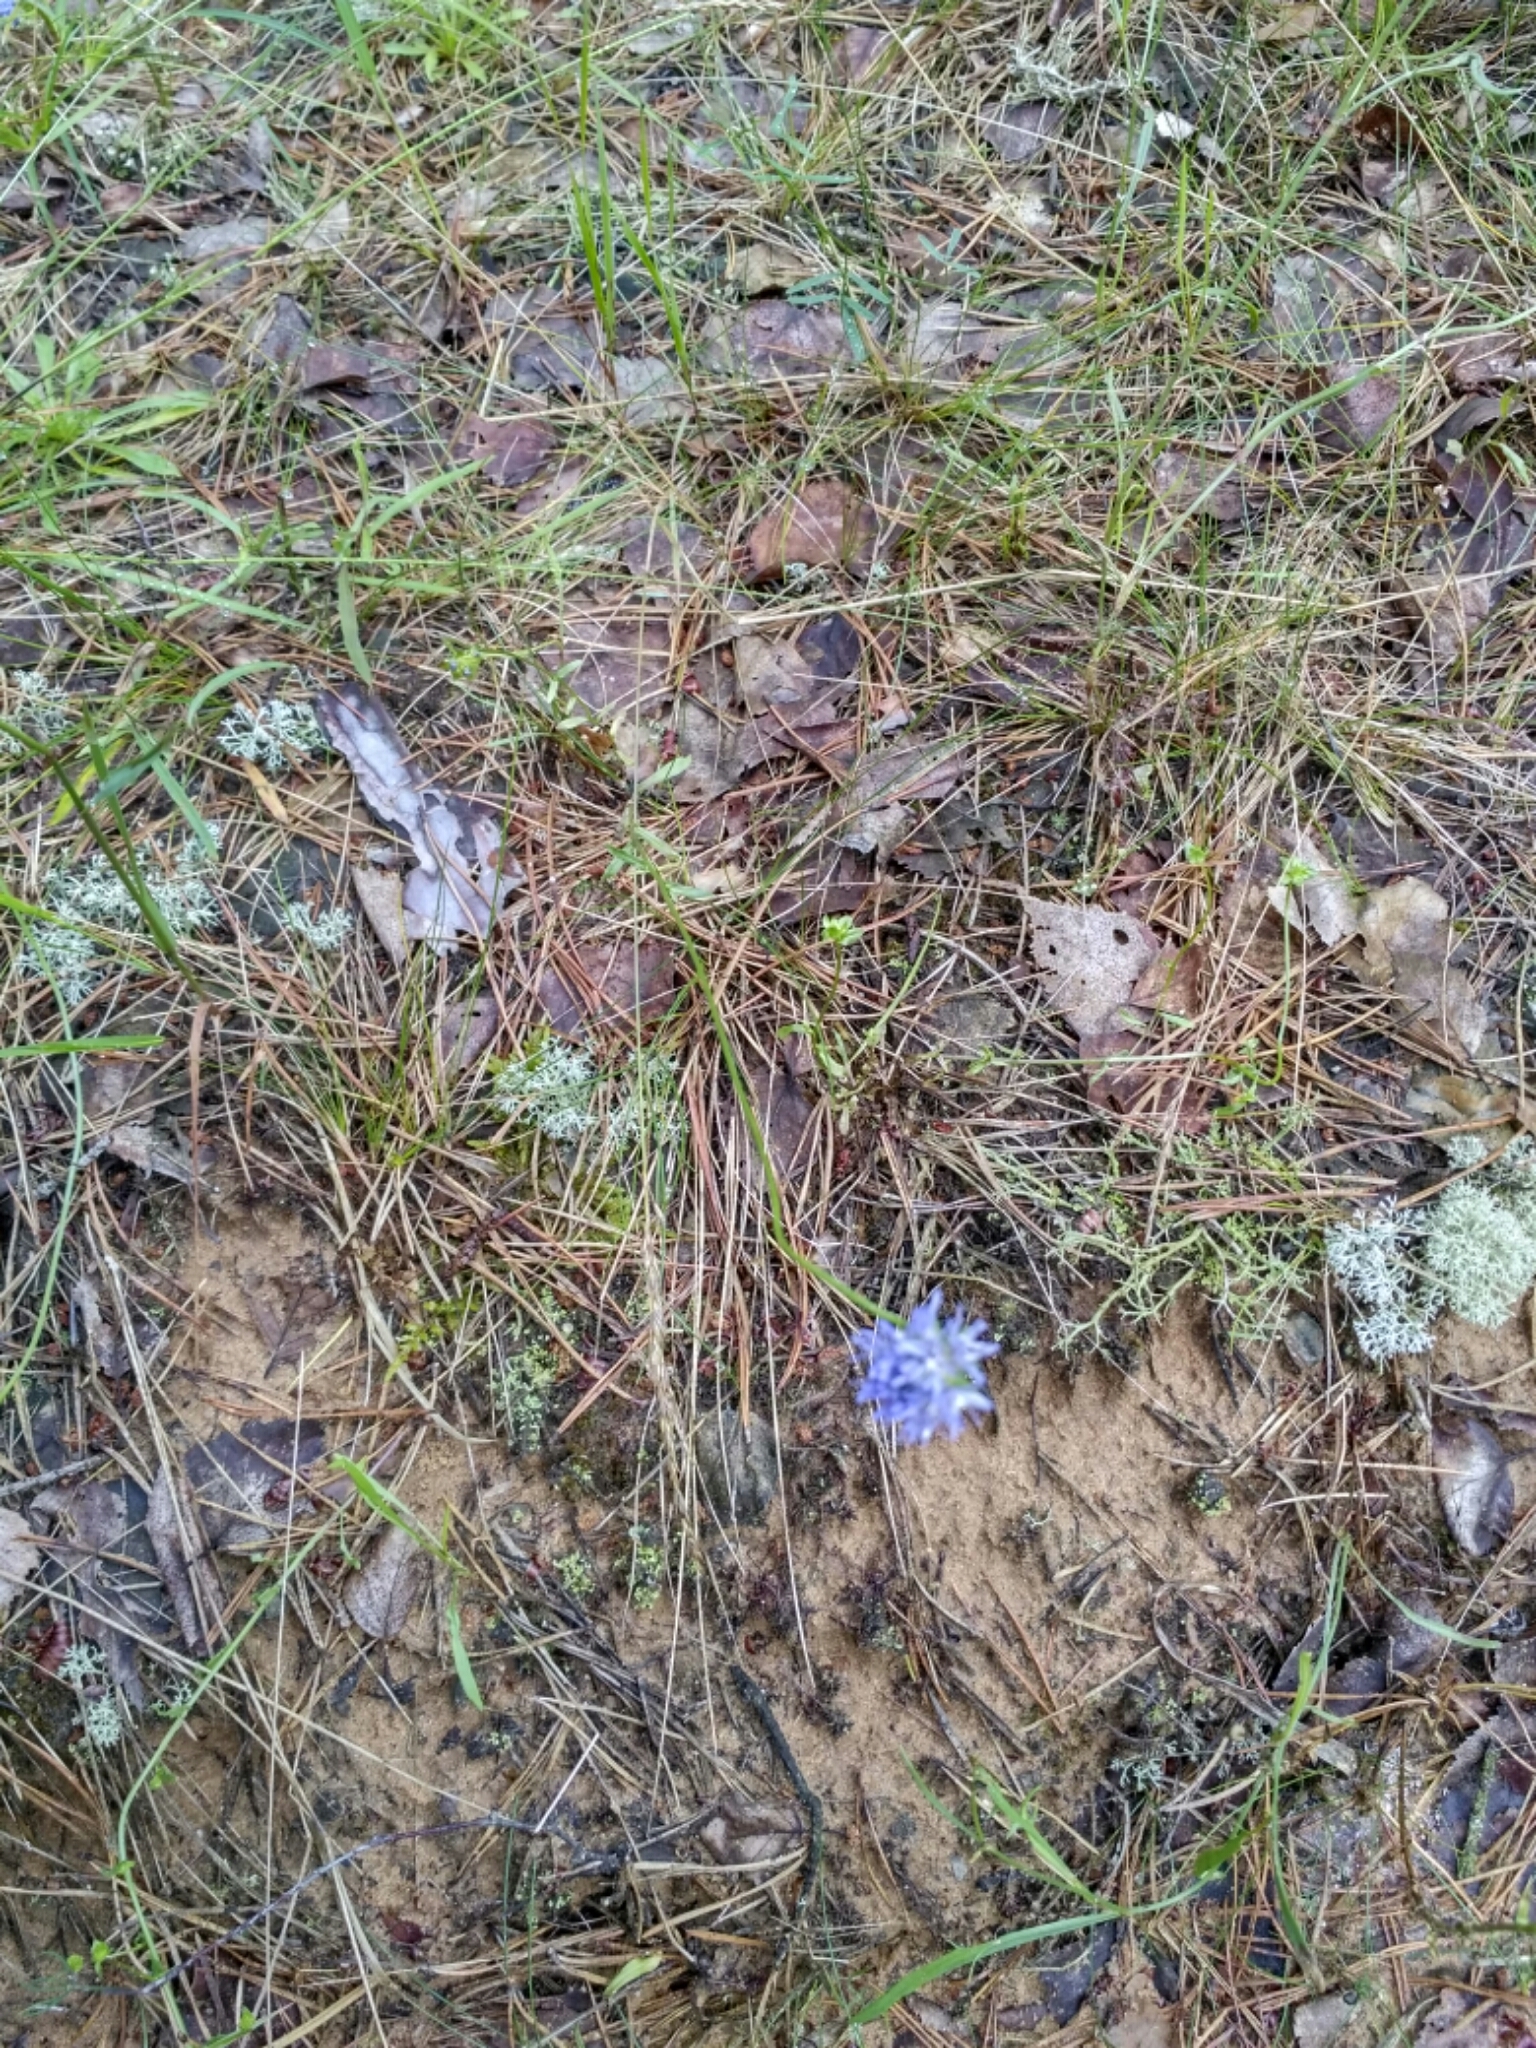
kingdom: Plantae
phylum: Tracheophyta
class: Magnoliopsida
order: Asterales
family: Campanulaceae
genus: Jasione
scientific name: Jasione montana
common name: Sheep's-bit
